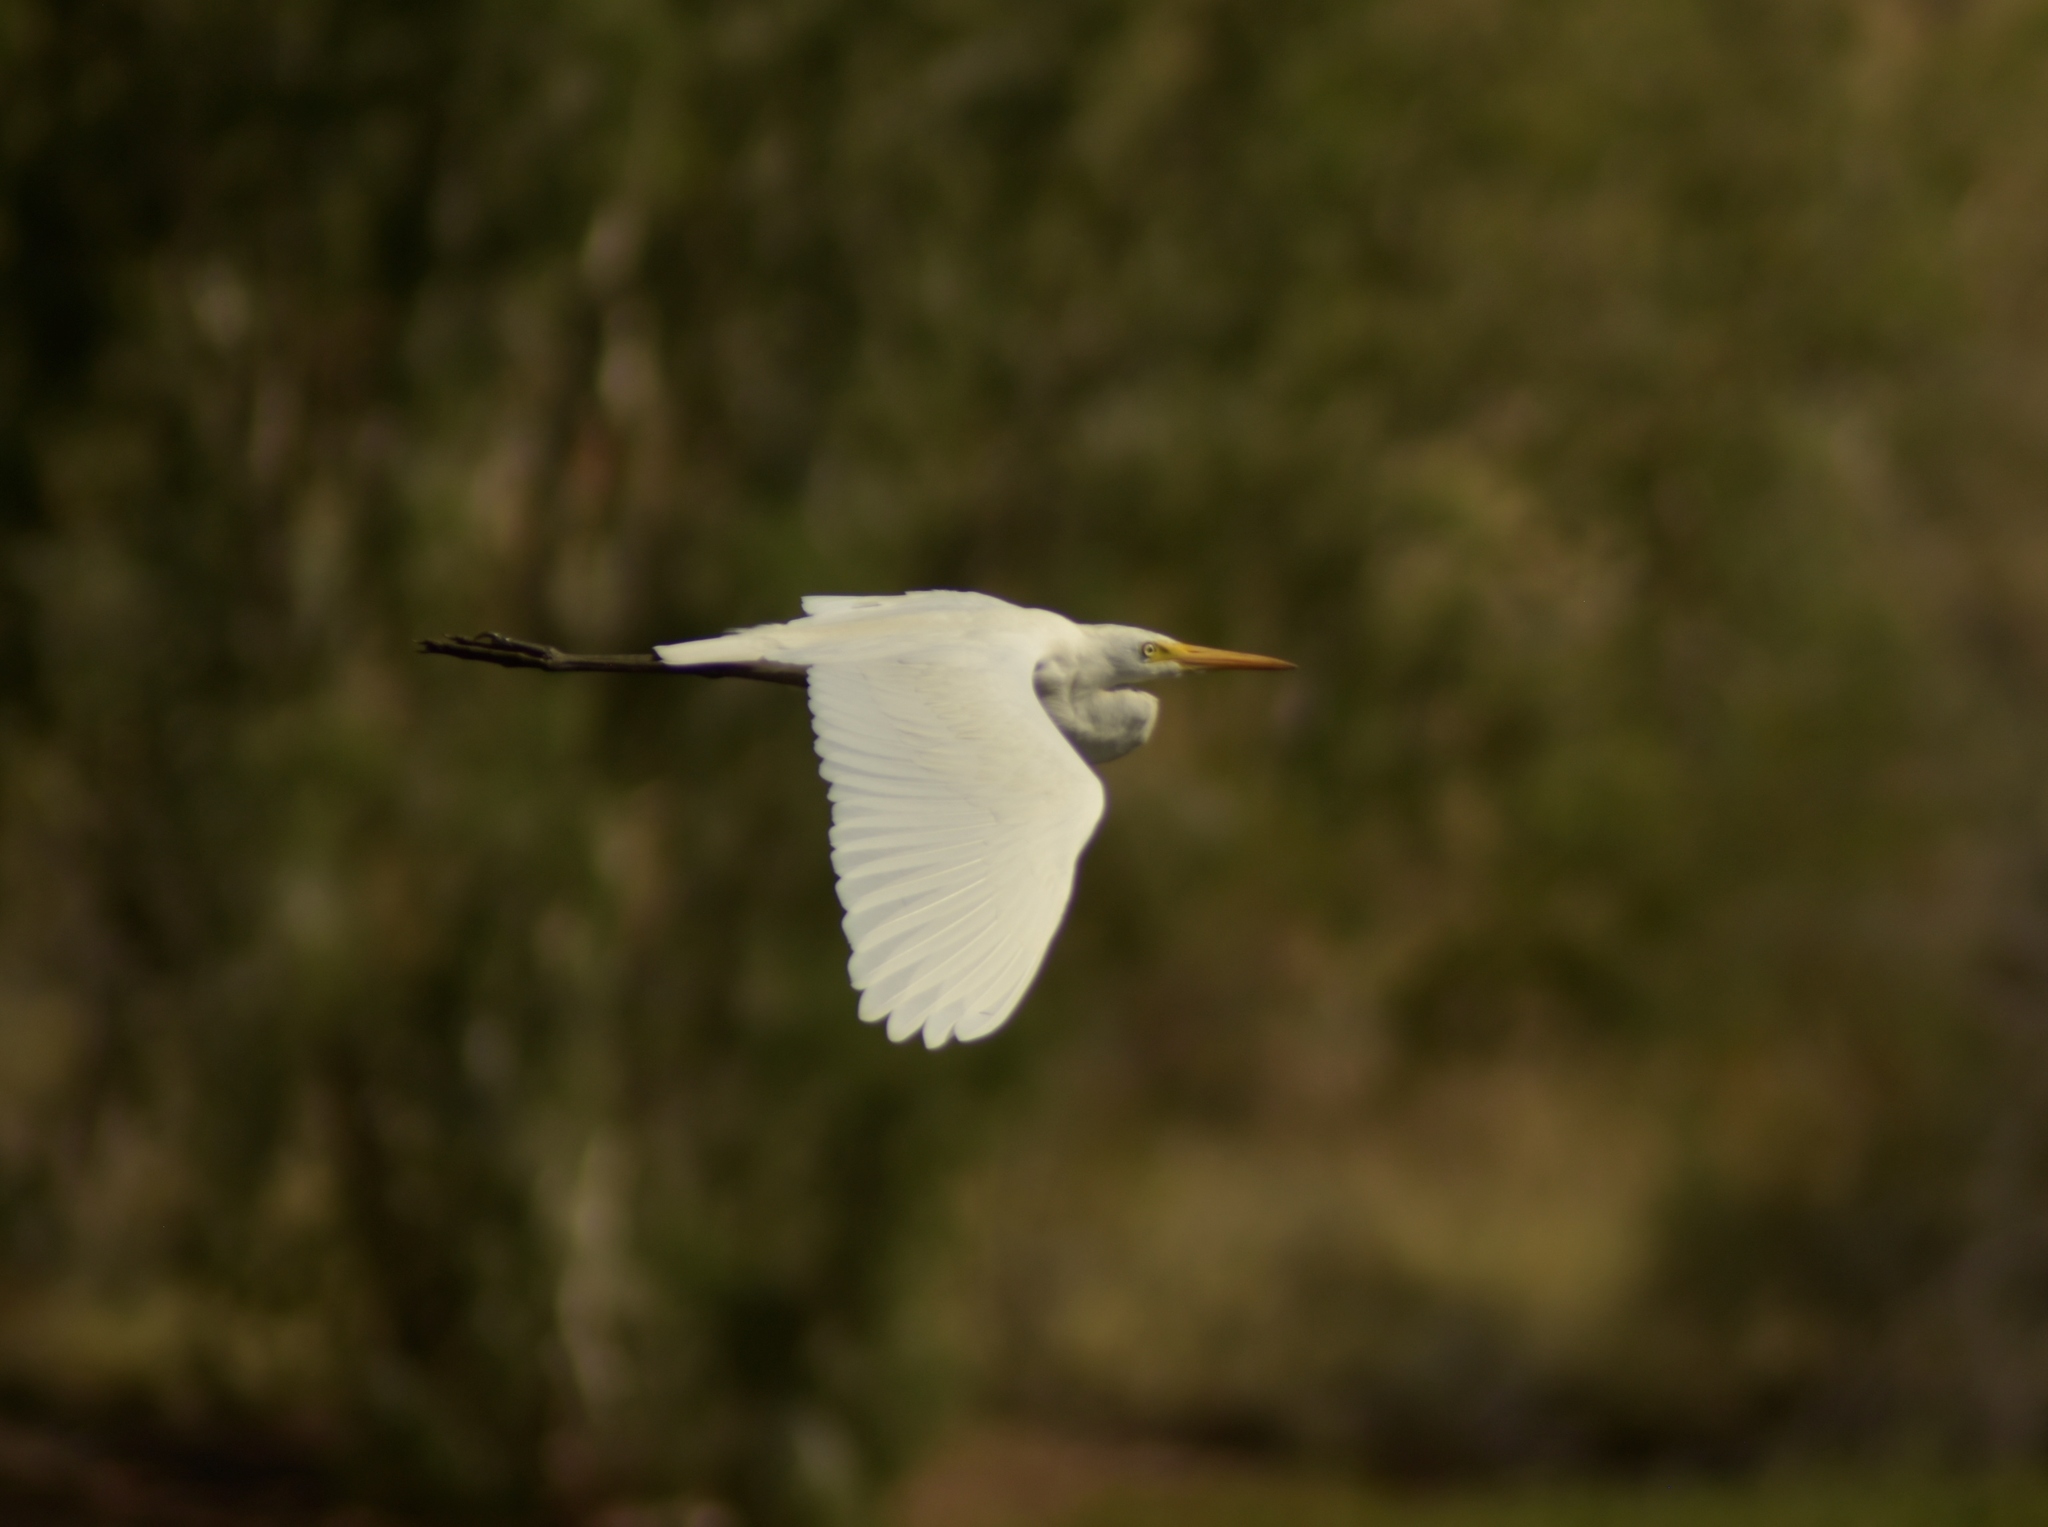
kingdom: Animalia
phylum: Chordata
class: Aves
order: Pelecaniformes
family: Ardeidae
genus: Egretta
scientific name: Egretta intermedia
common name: Intermediate egret
